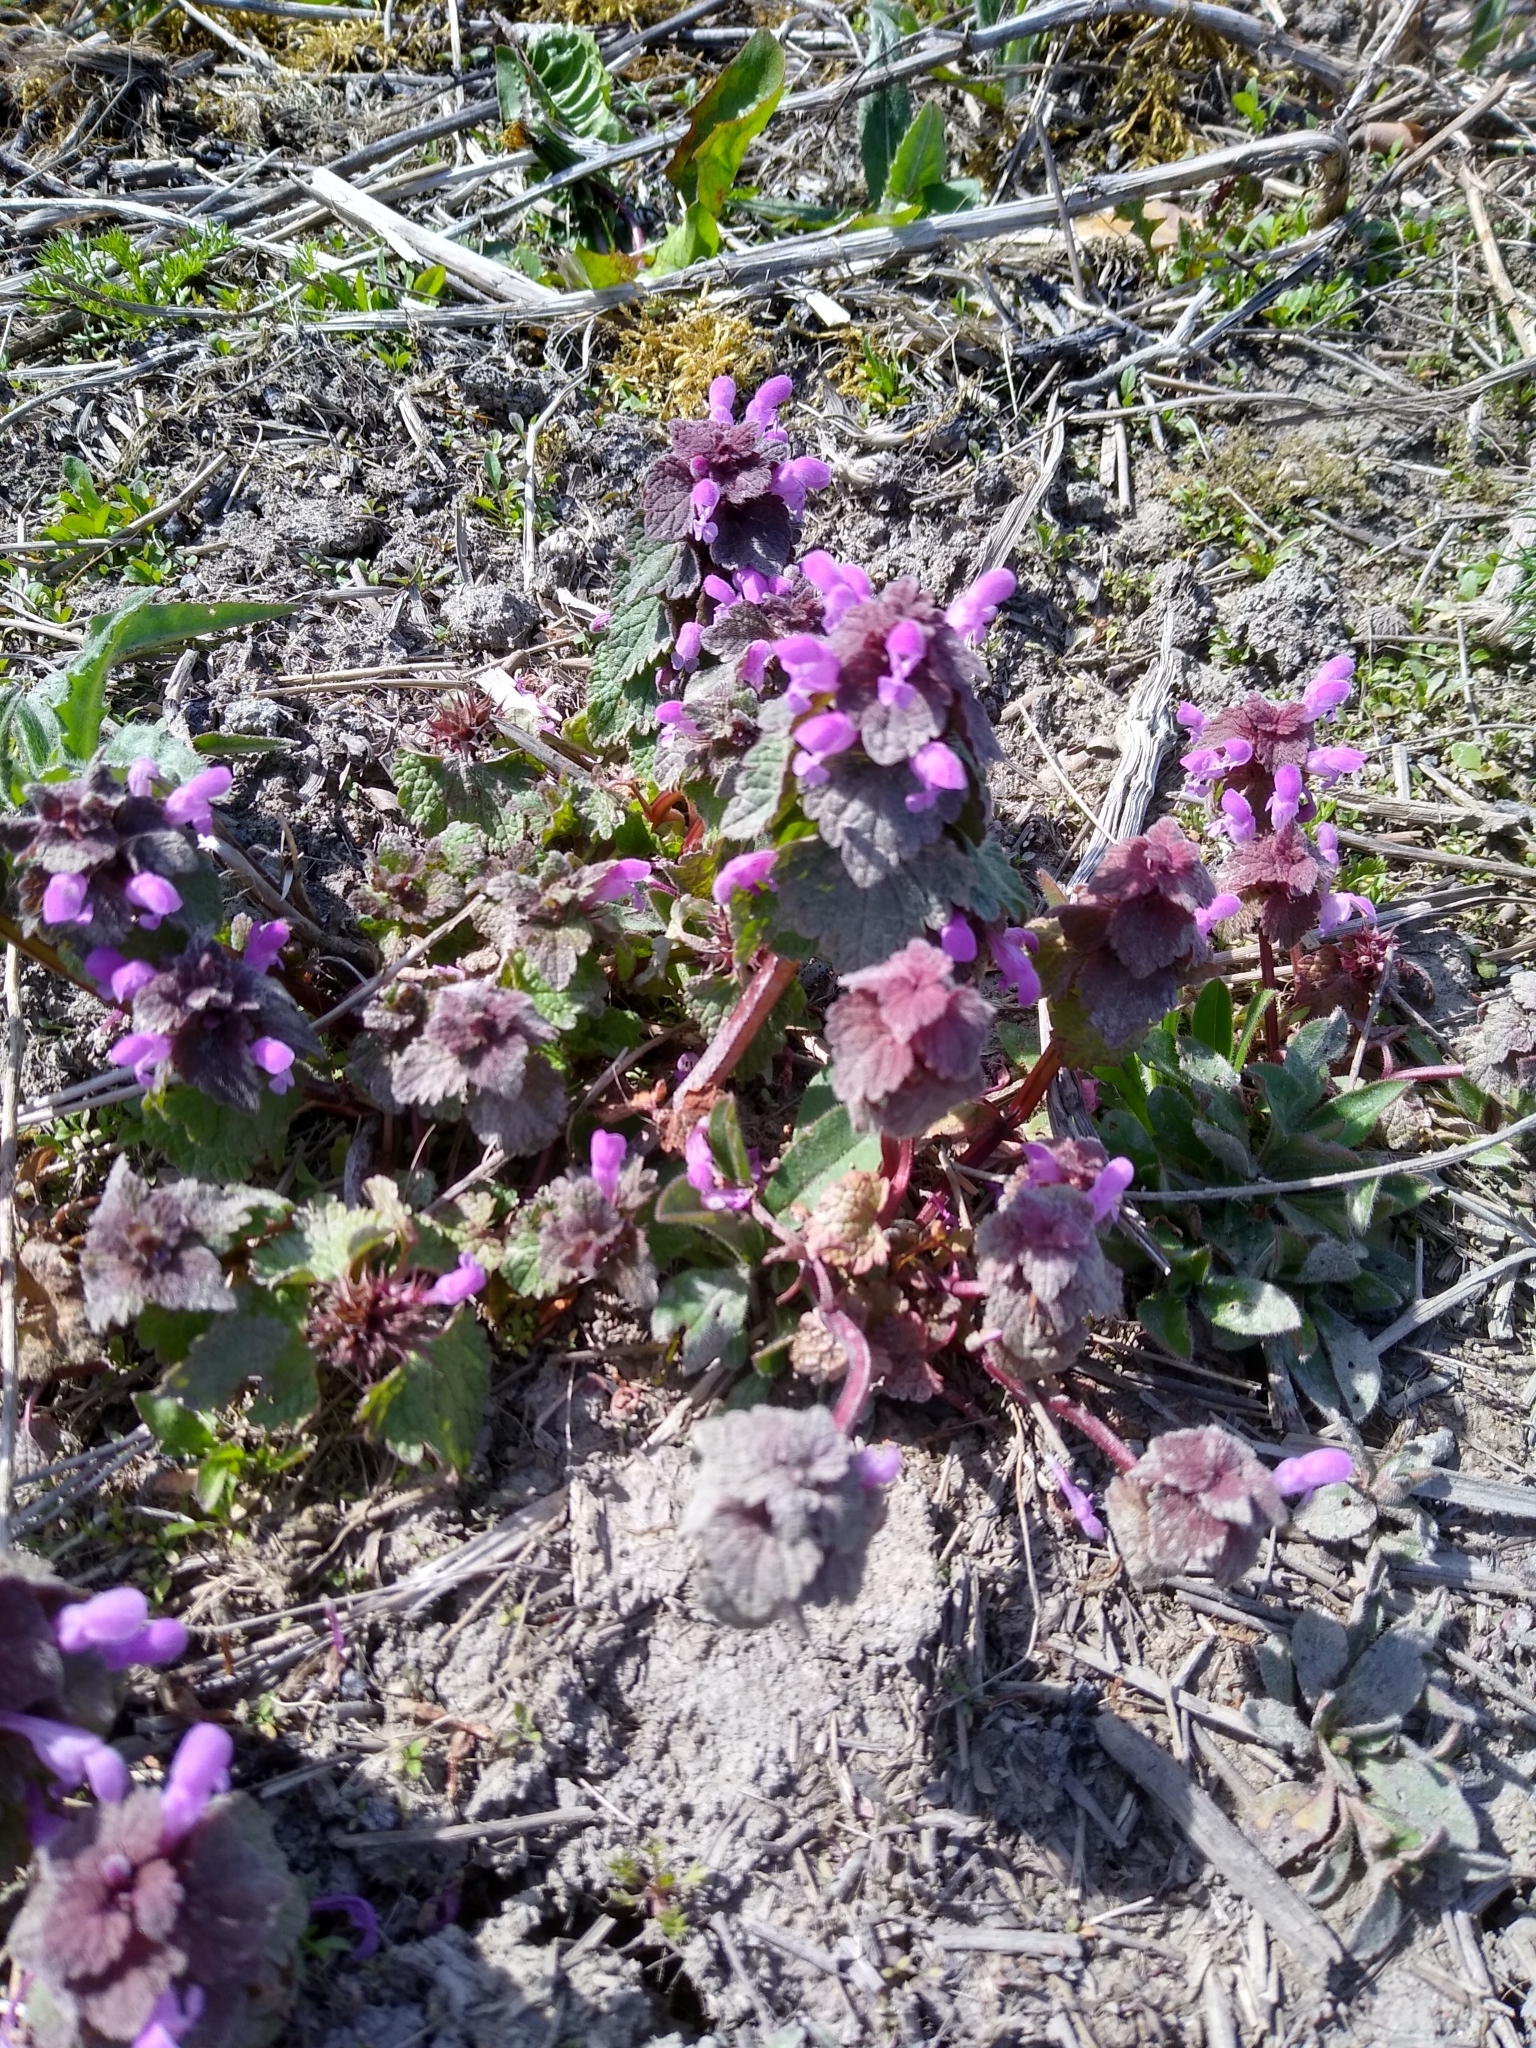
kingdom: Plantae
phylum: Tracheophyta
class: Magnoliopsida
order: Lamiales
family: Lamiaceae
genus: Lamium
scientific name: Lamium purpureum
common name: Red dead-nettle
